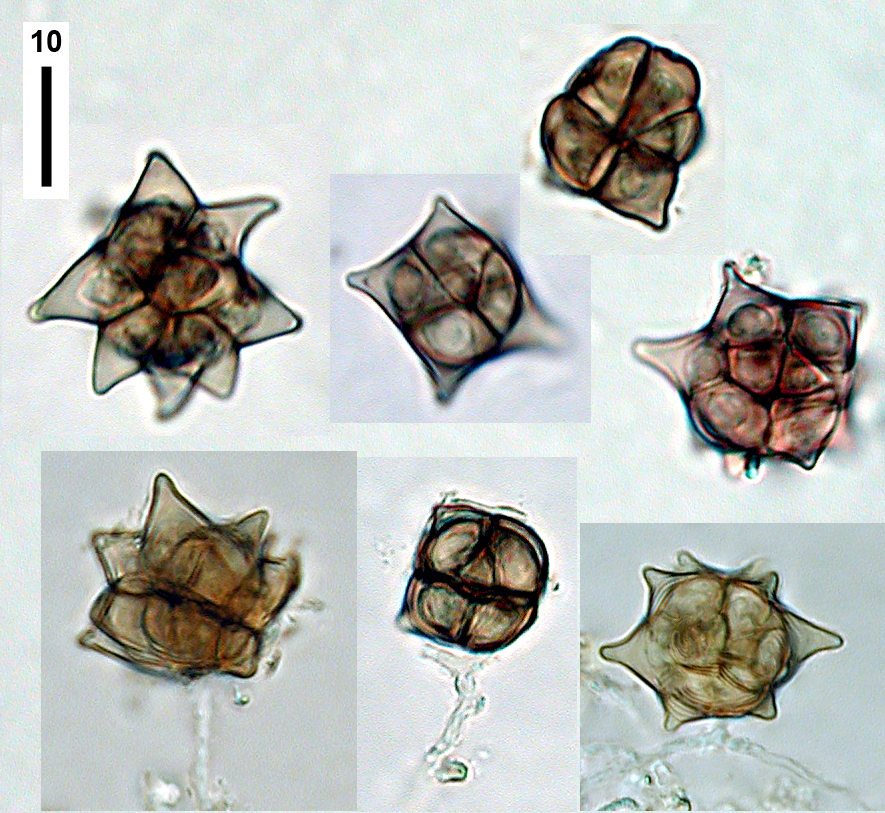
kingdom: Fungi
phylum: Ascomycota
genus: Oncopodiella
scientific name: Oncopodiella hyperparasitica
